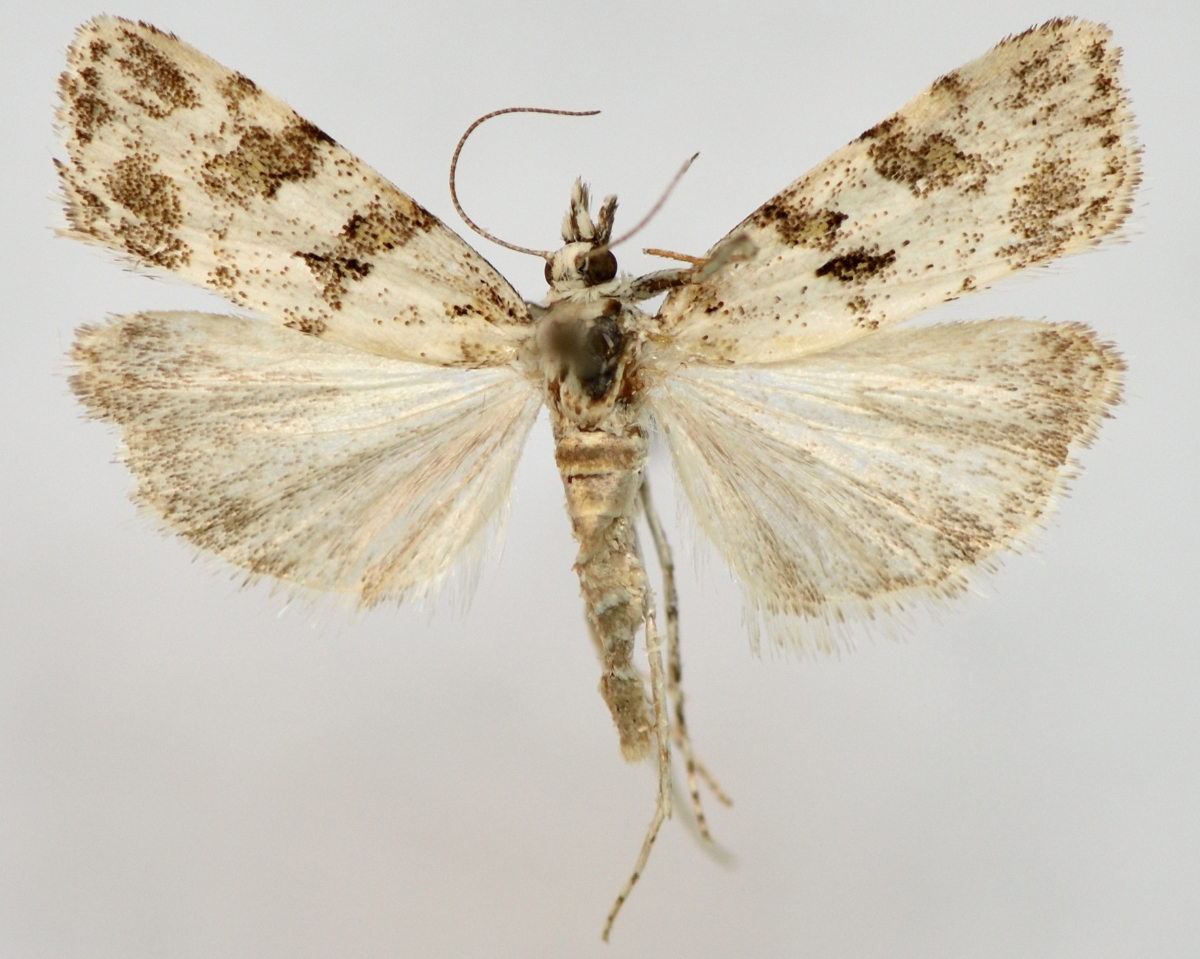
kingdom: Animalia
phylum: Arthropoda
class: Insecta
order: Lepidoptera
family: Crambidae
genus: Scoparia
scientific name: Scoparia ingratella
